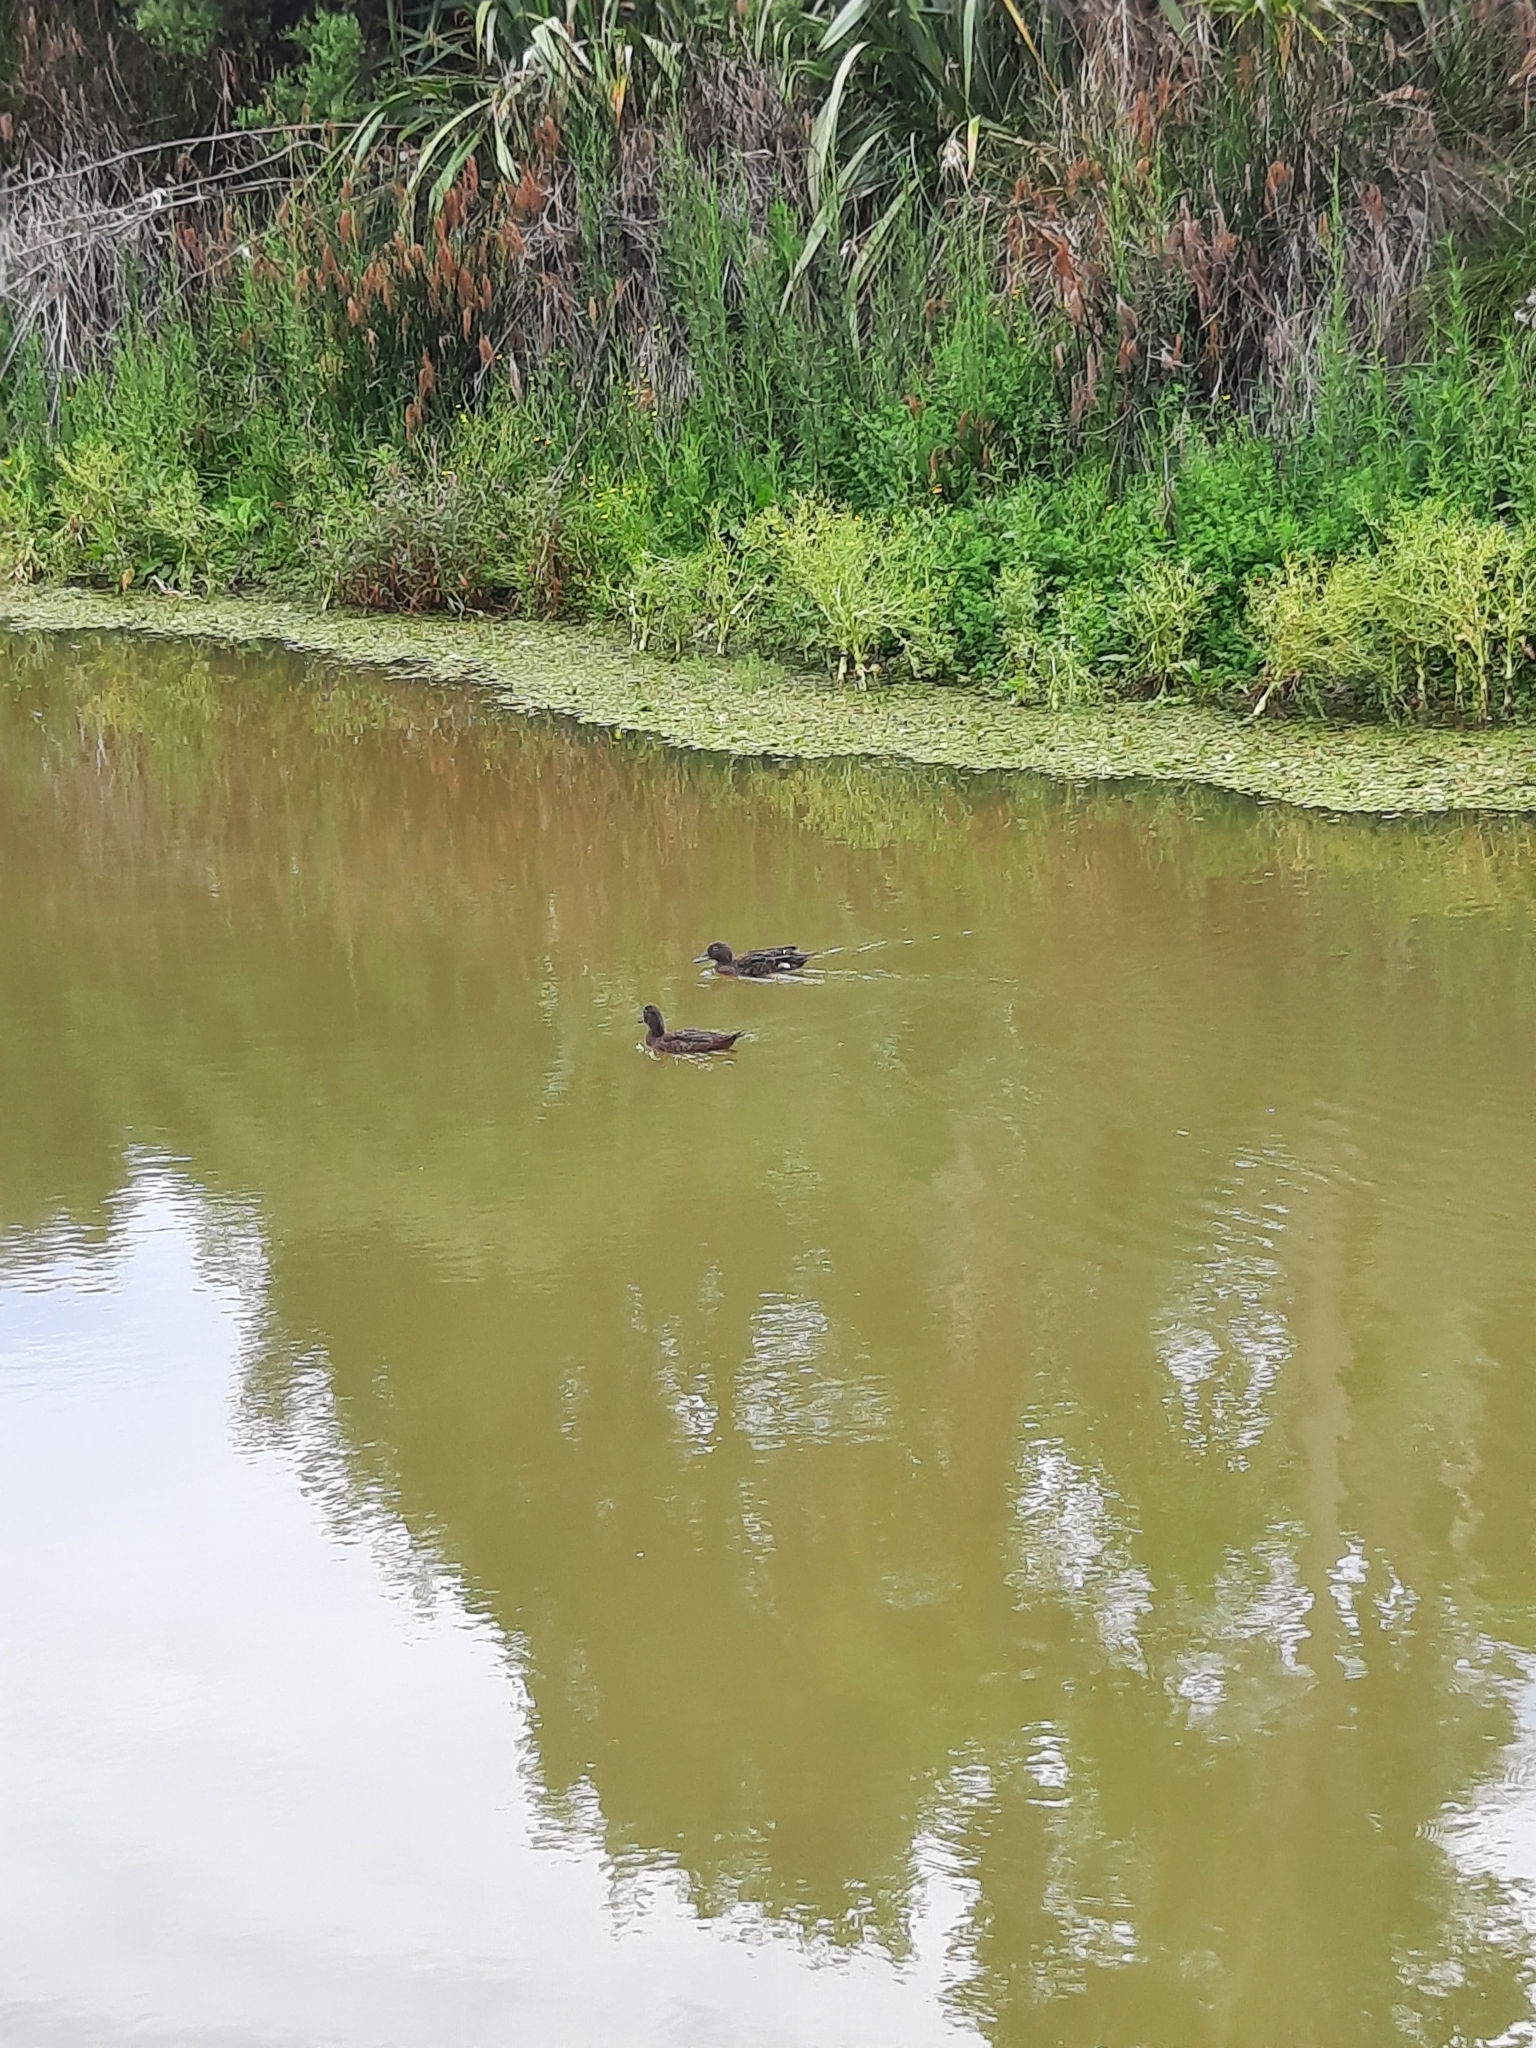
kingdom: Animalia
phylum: Chordata
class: Aves
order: Anseriformes
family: Anatidae
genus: Anas
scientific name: Anas chlorotis
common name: Brown teal
